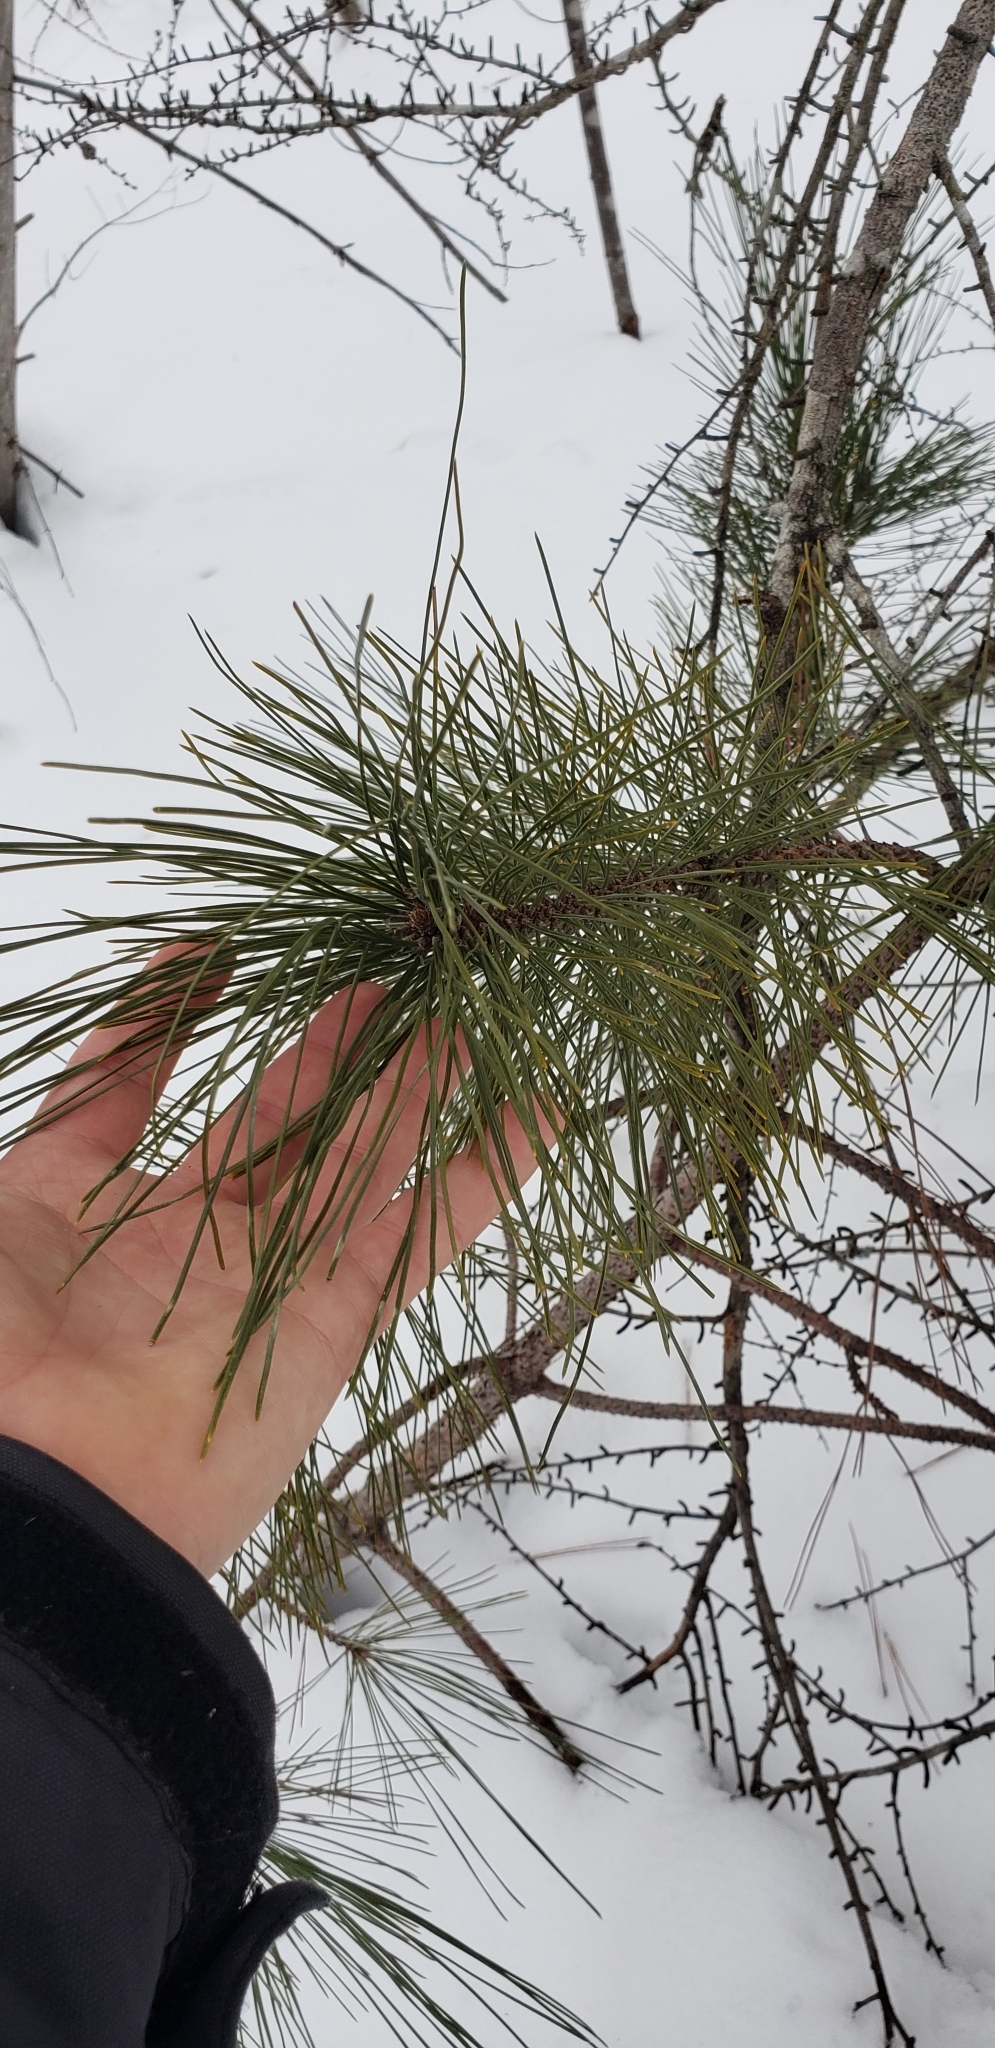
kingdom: Plantae
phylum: Tracheophyta
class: Pinopsida
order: Pinales
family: Pinaceae
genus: Pinus
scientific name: Pinus resinosa
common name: Norway pine
